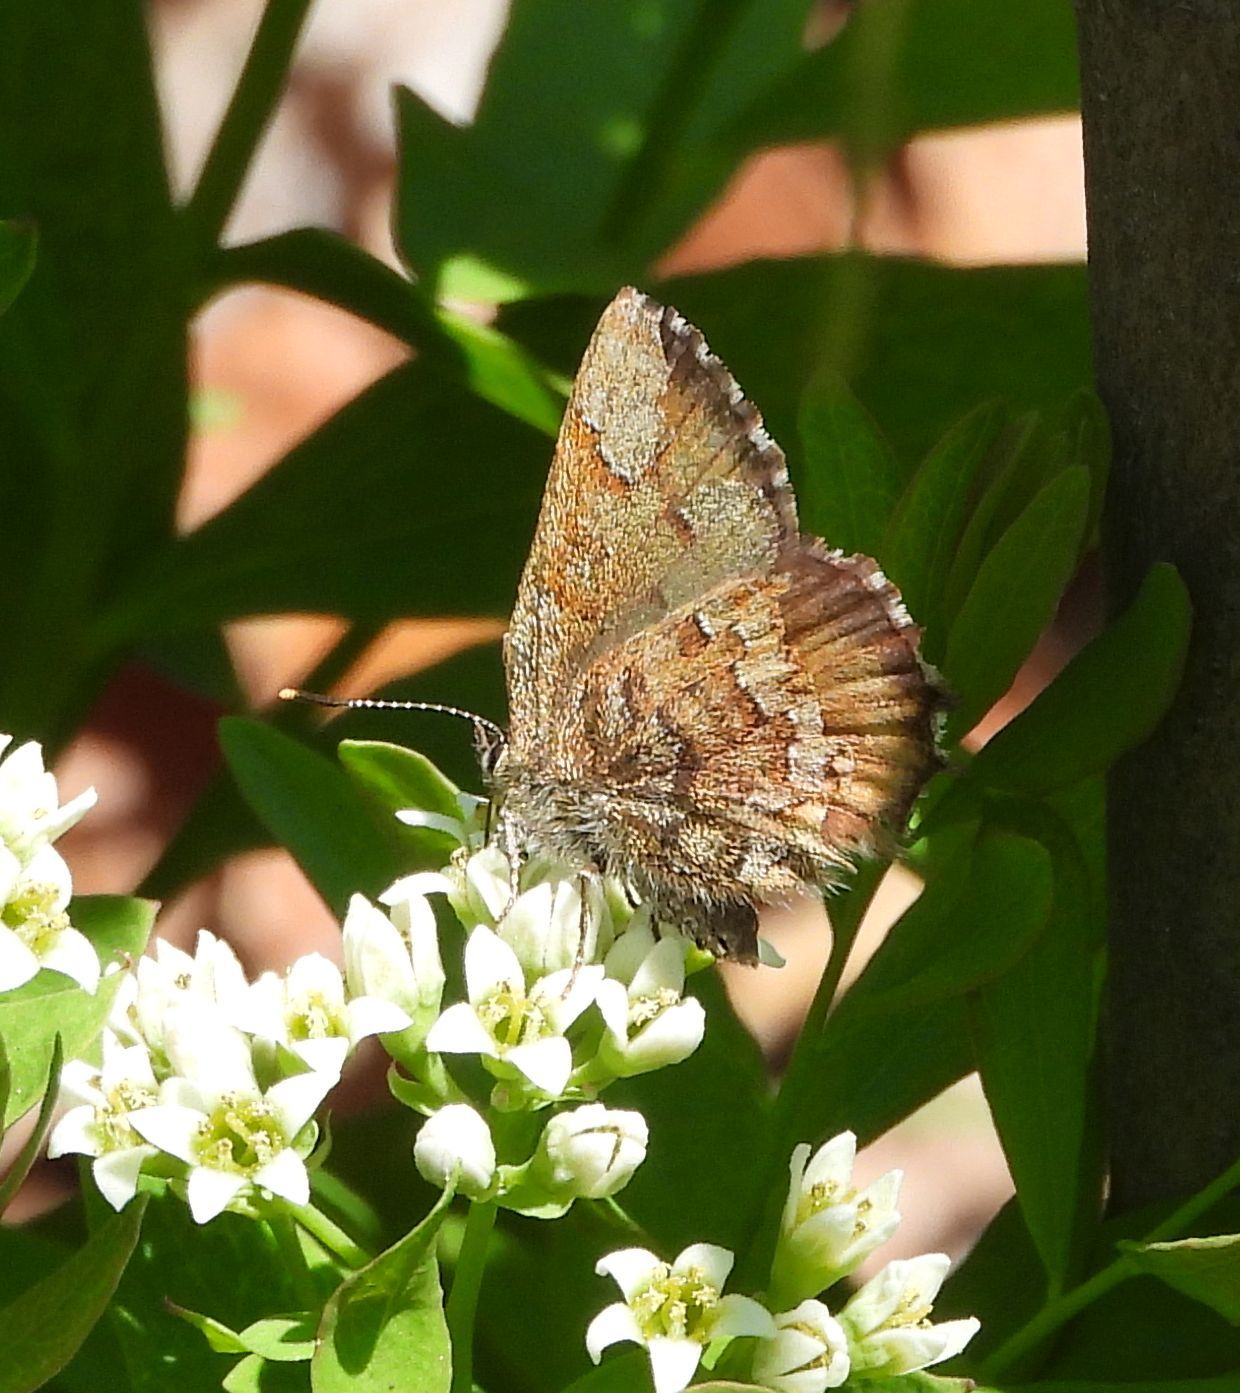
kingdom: Animalia
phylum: Arthropoda
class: Insecta
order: Lepidoptera
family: Lycaenidae
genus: Incisalia
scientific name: Incisalia niphon
